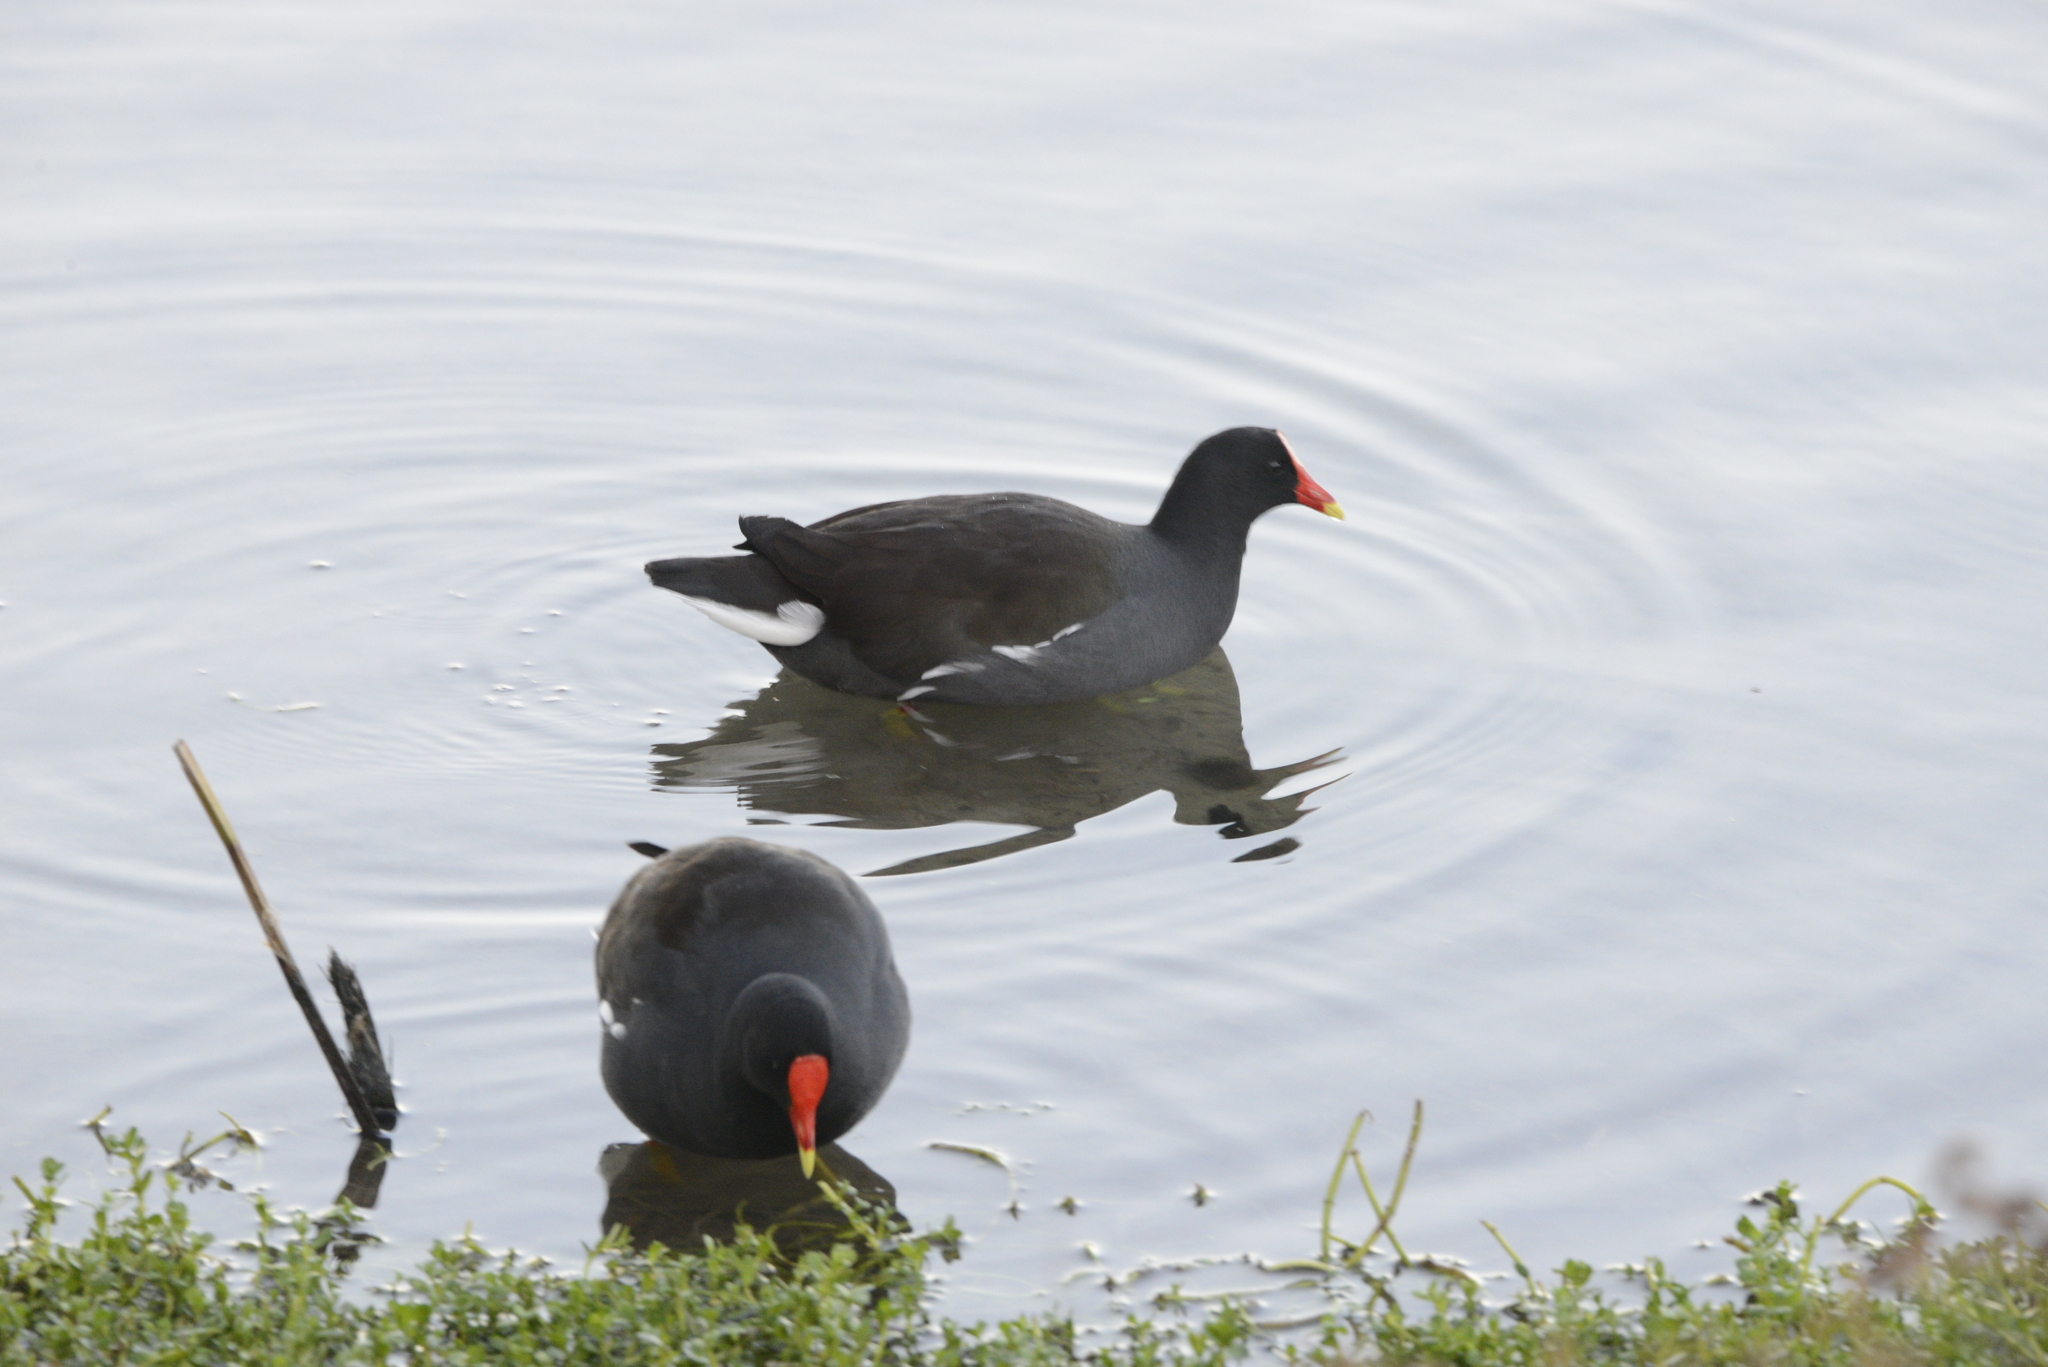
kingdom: Animalia
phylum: Chordata
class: Aves
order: Gruiformes
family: Rallidae
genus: Gallinula
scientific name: Gallinula chloropus
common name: Common moorhen
